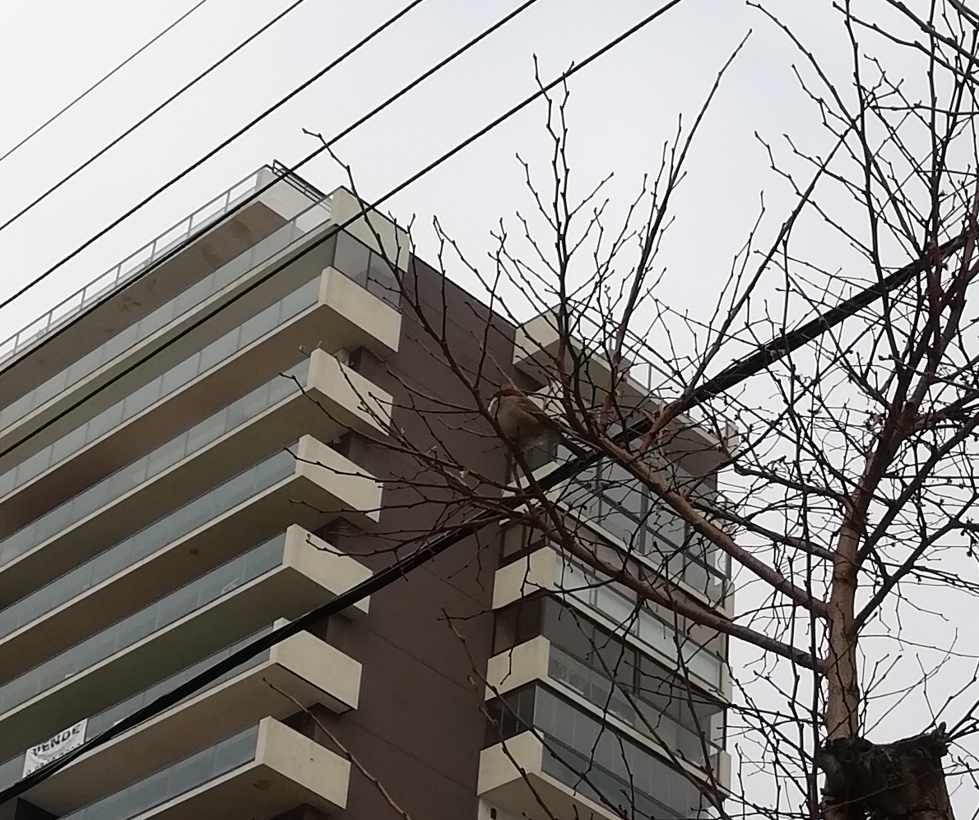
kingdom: Animalia
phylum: Chordata
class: Aves
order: Passeriformes
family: Passerellidae
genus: Zonotrichia
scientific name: Zonotrichia capensis
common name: Rufous-collared sparrow
